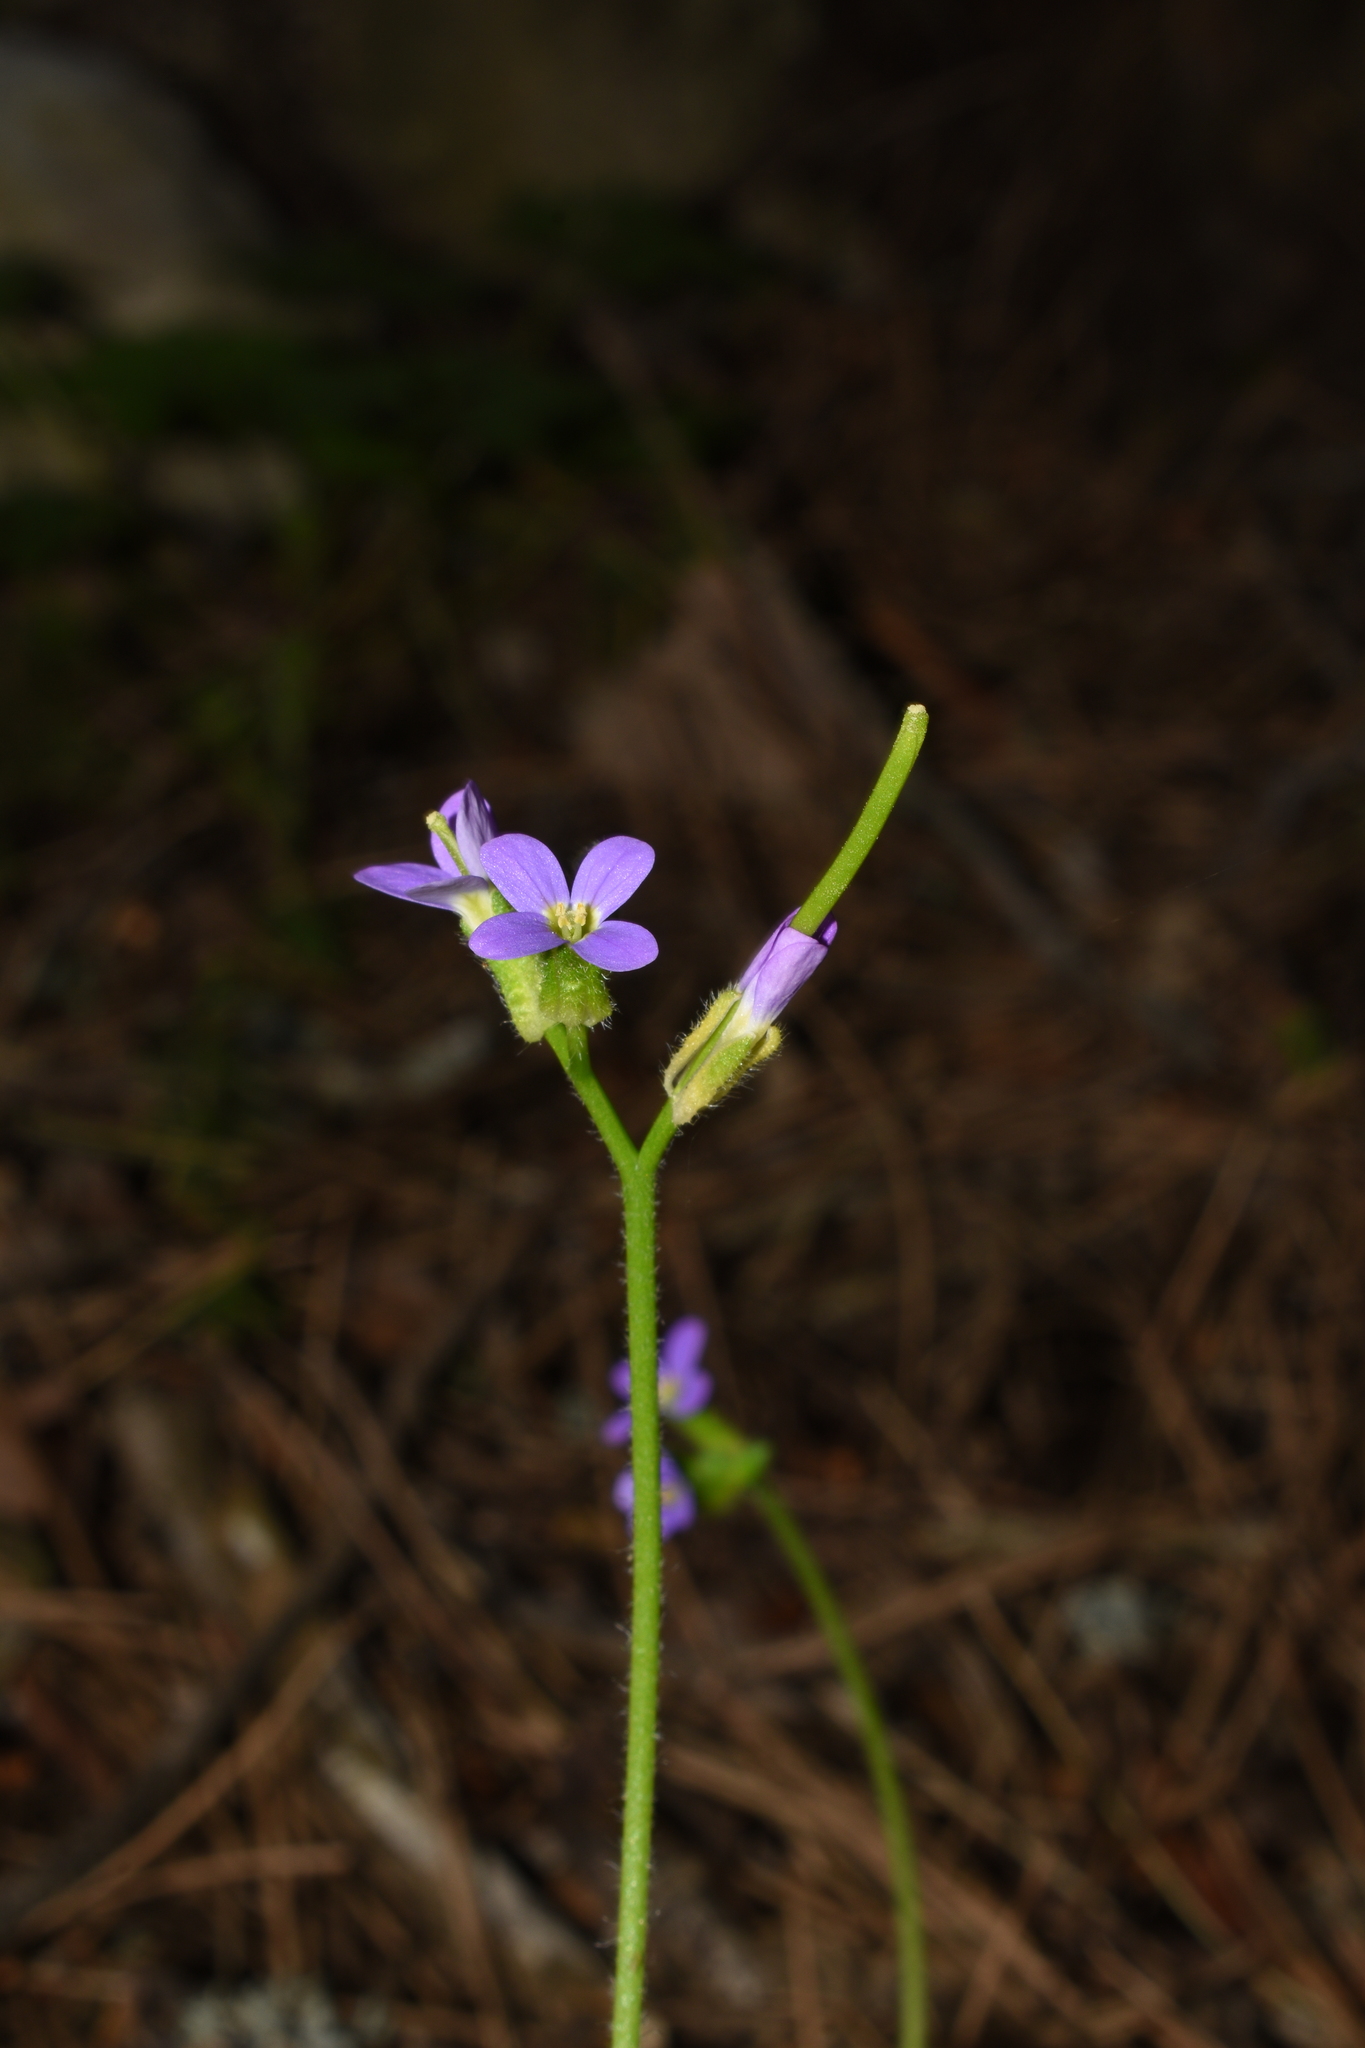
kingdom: Plantae
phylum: Tracheophyta
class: Magnoliopsida
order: Brassicales
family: Brassicaceae
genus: Arabis
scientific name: Arabis verna
